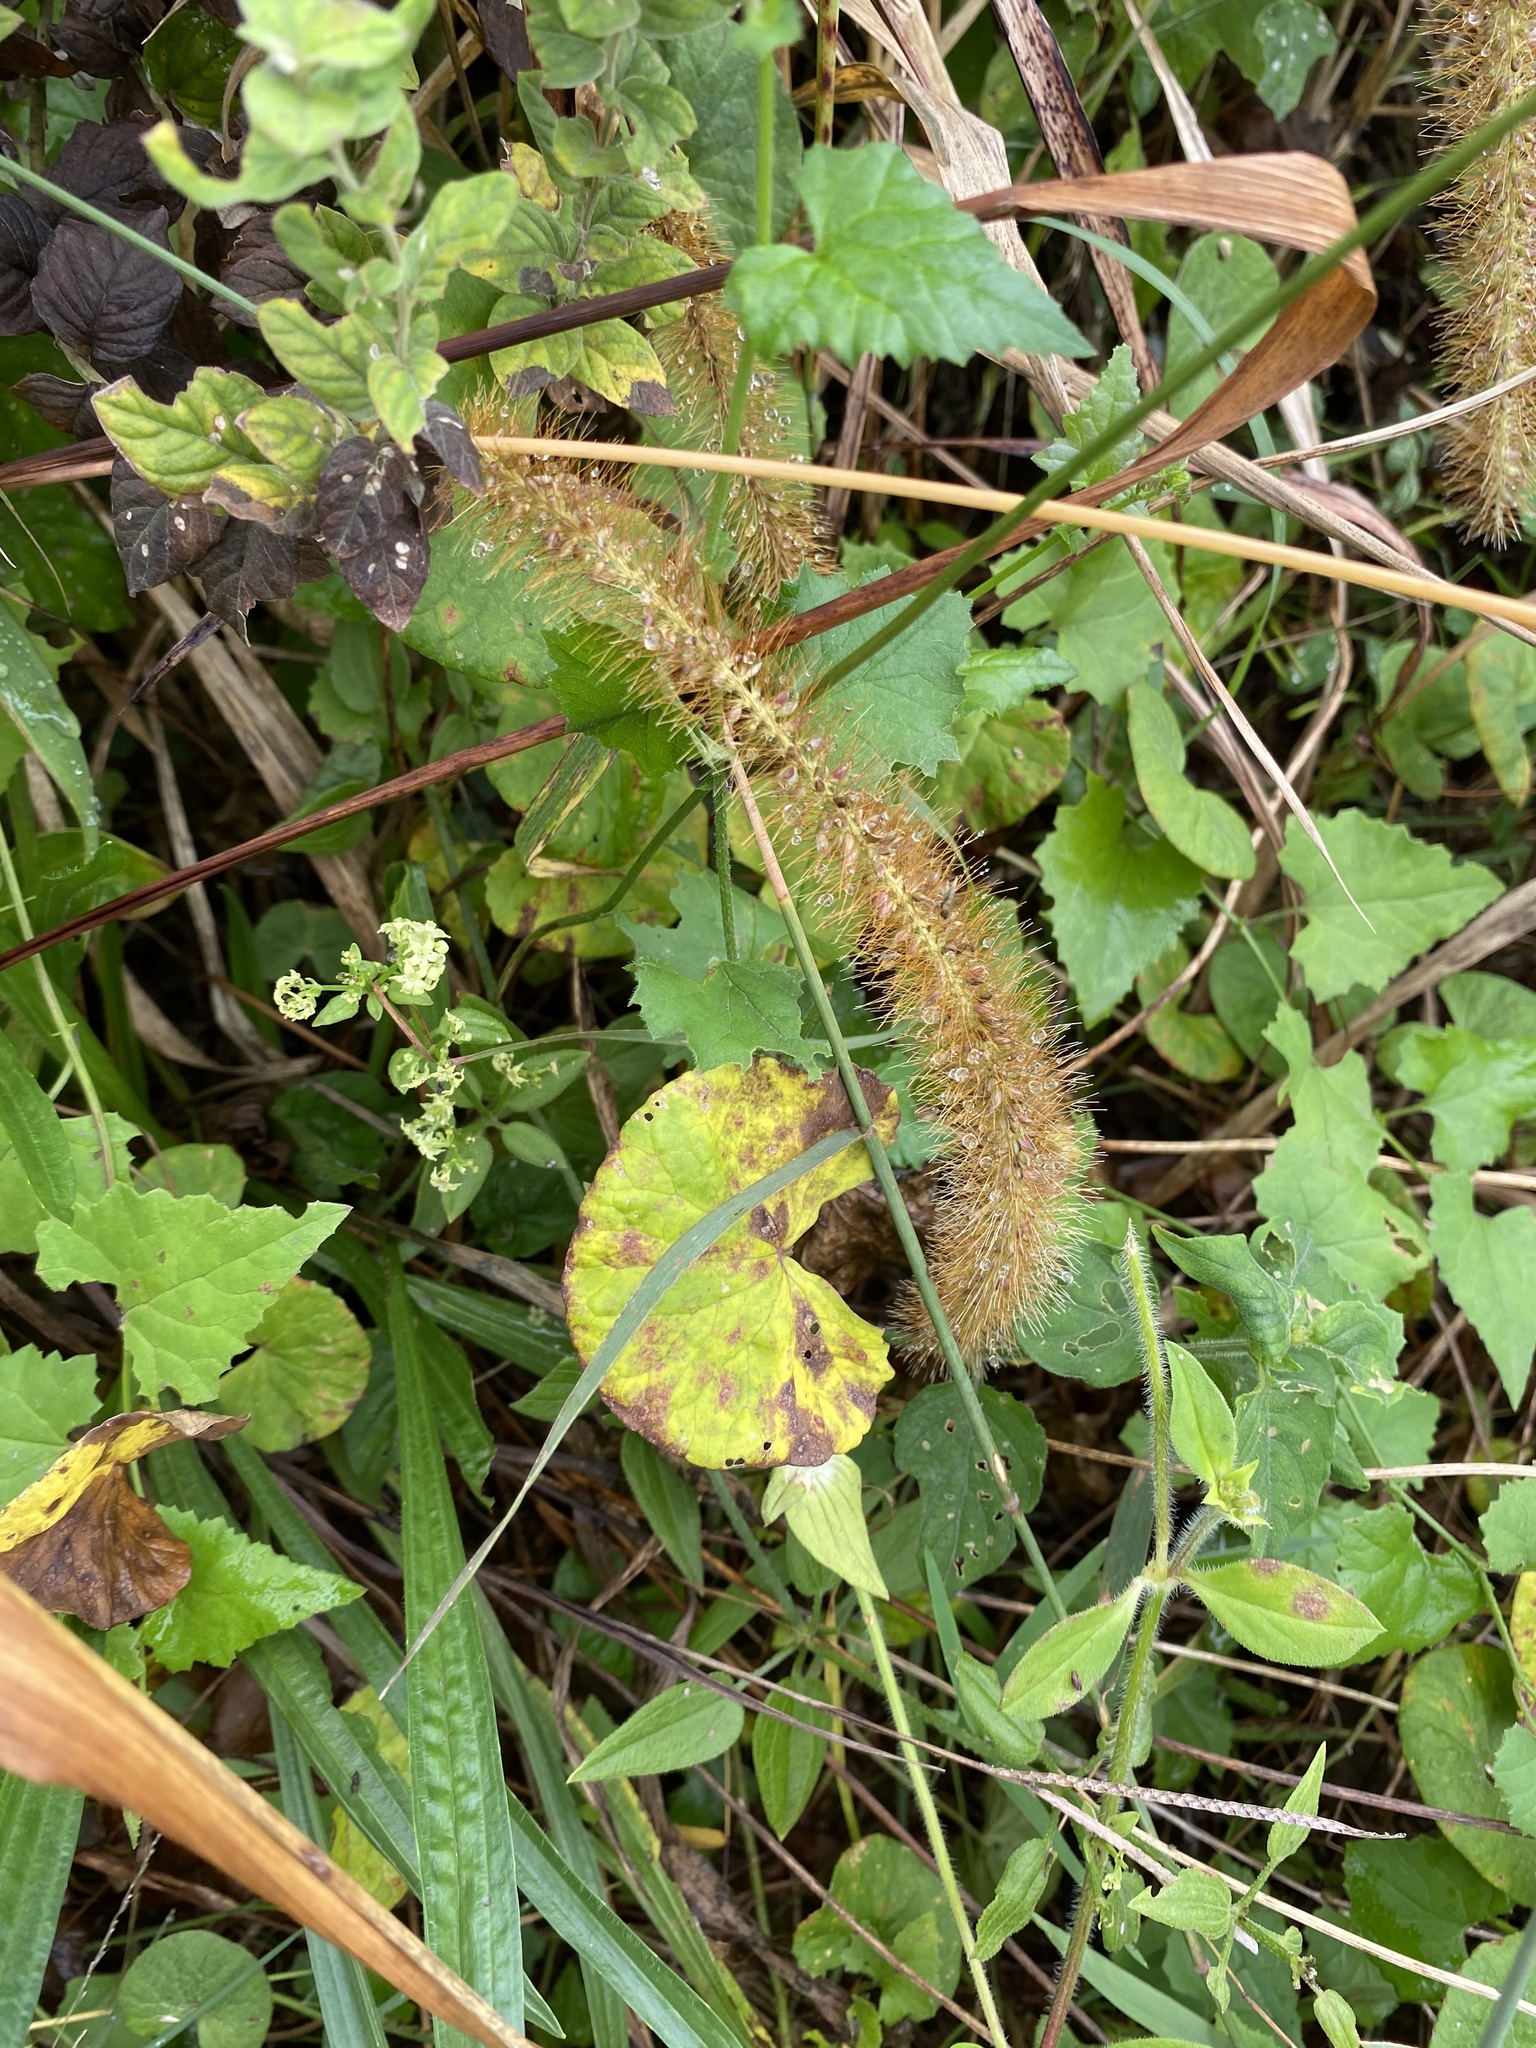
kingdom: Plantae
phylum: Tracheophyta
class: Liliopsida
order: Poales
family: Poaceae
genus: Setaria
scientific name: Setaria sphacelata
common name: African bristlegrass
